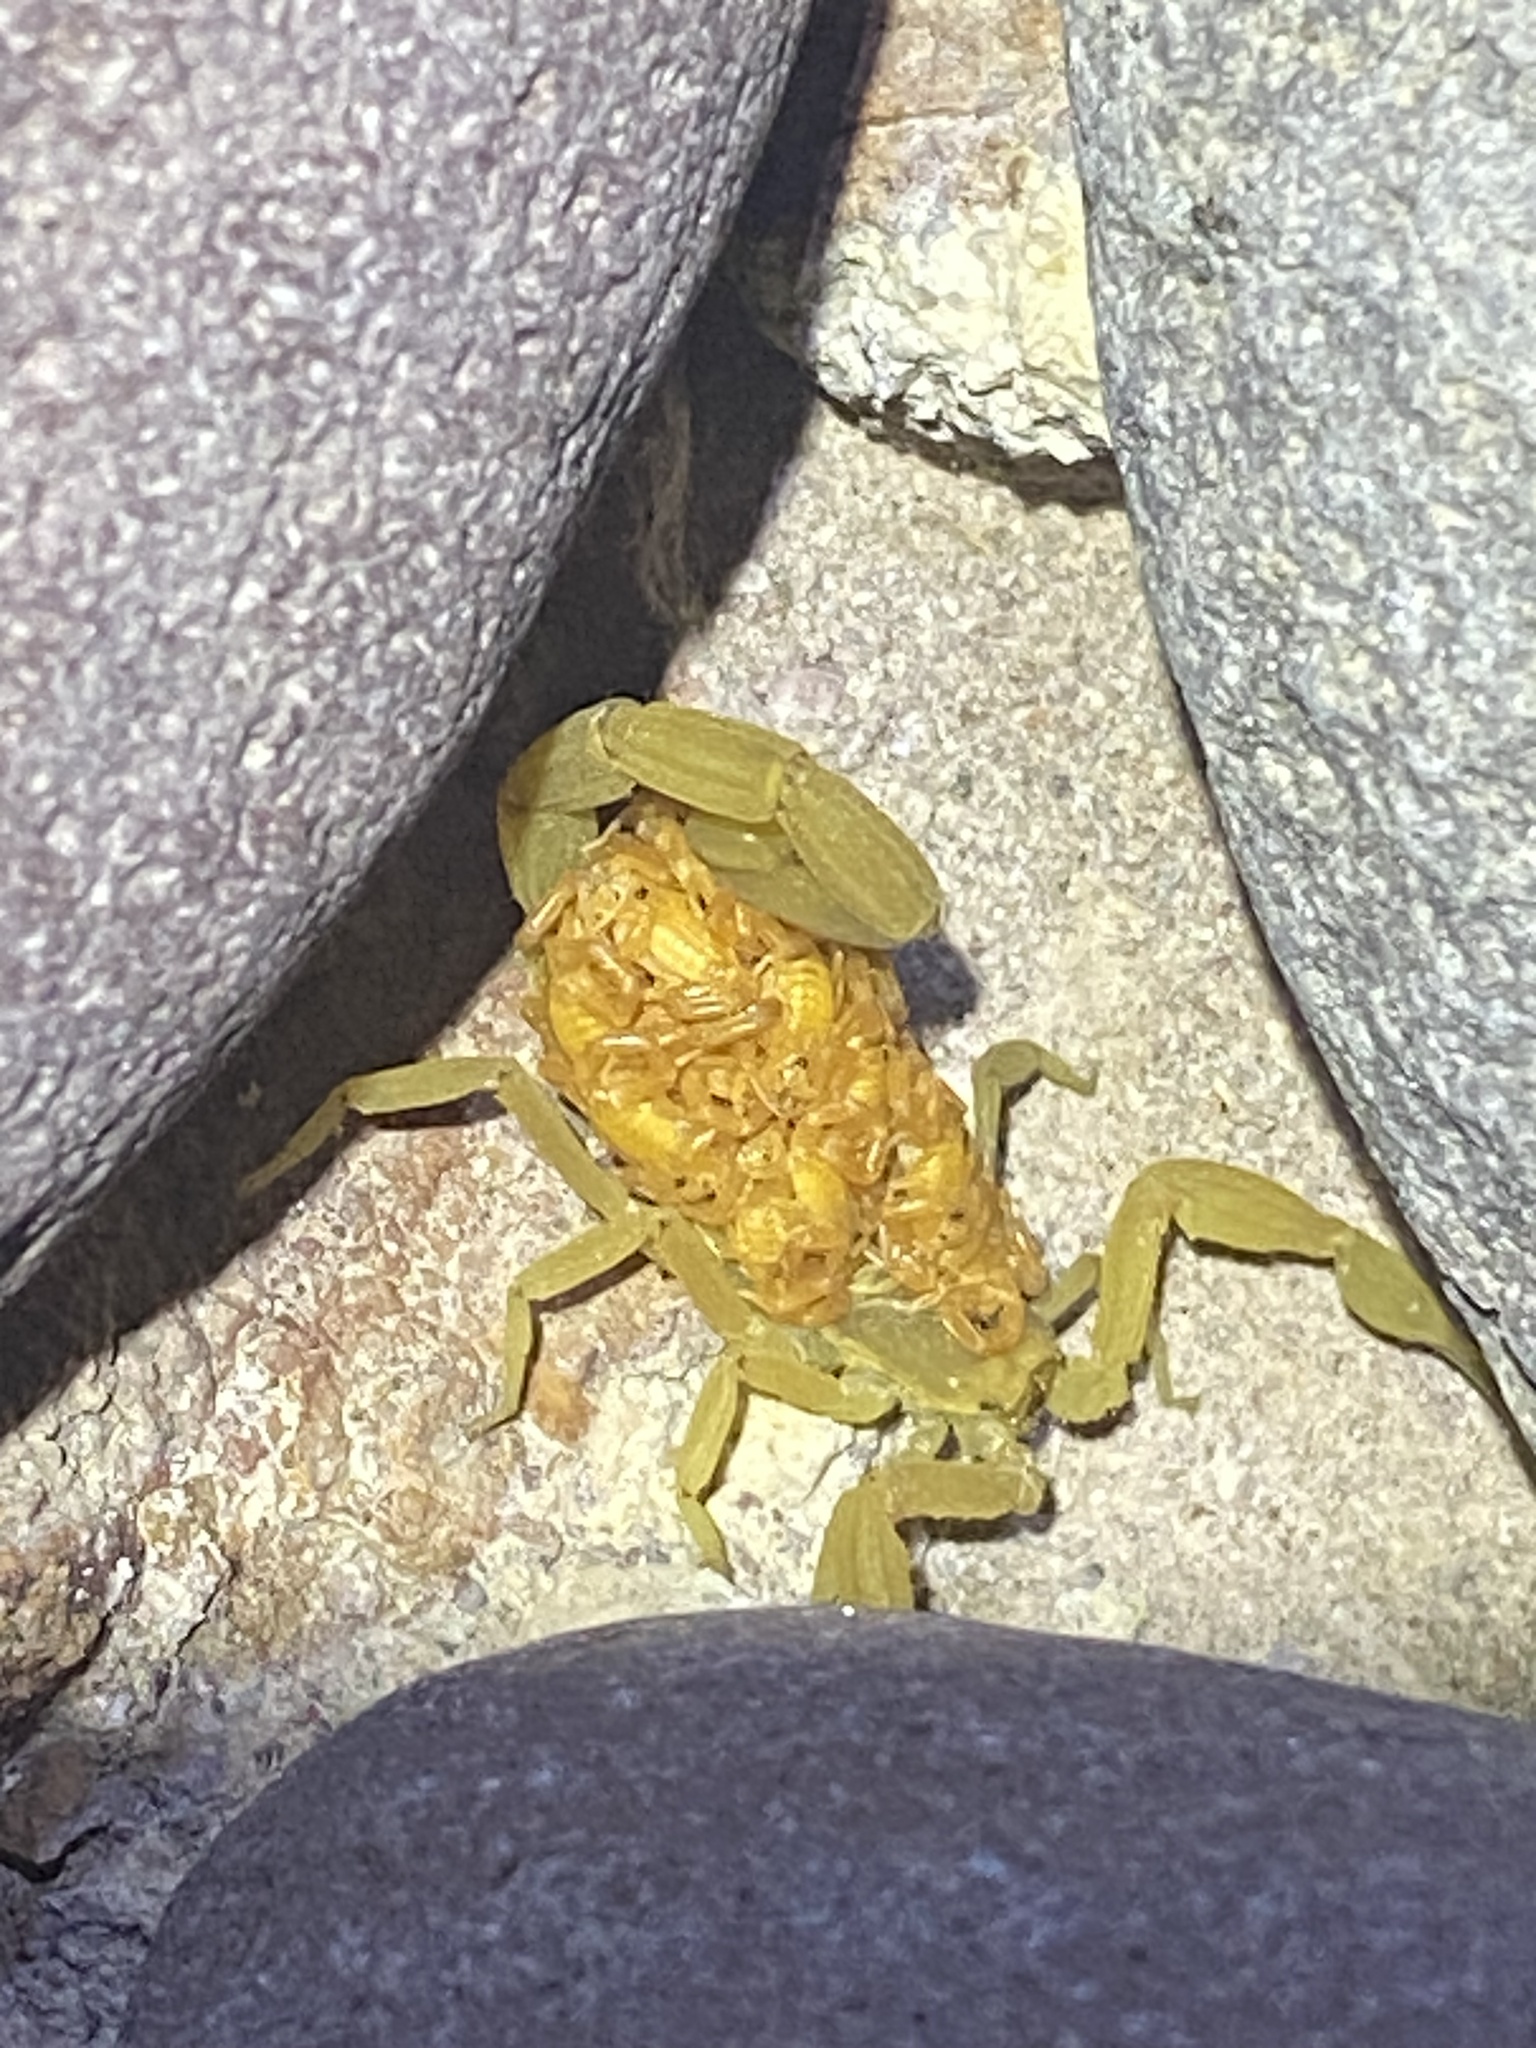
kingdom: Animalia
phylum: Arthropoda
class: Arachnida
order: Scorpiones
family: Buthidae
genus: Centruroides
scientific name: Centruroides sculpturatus
